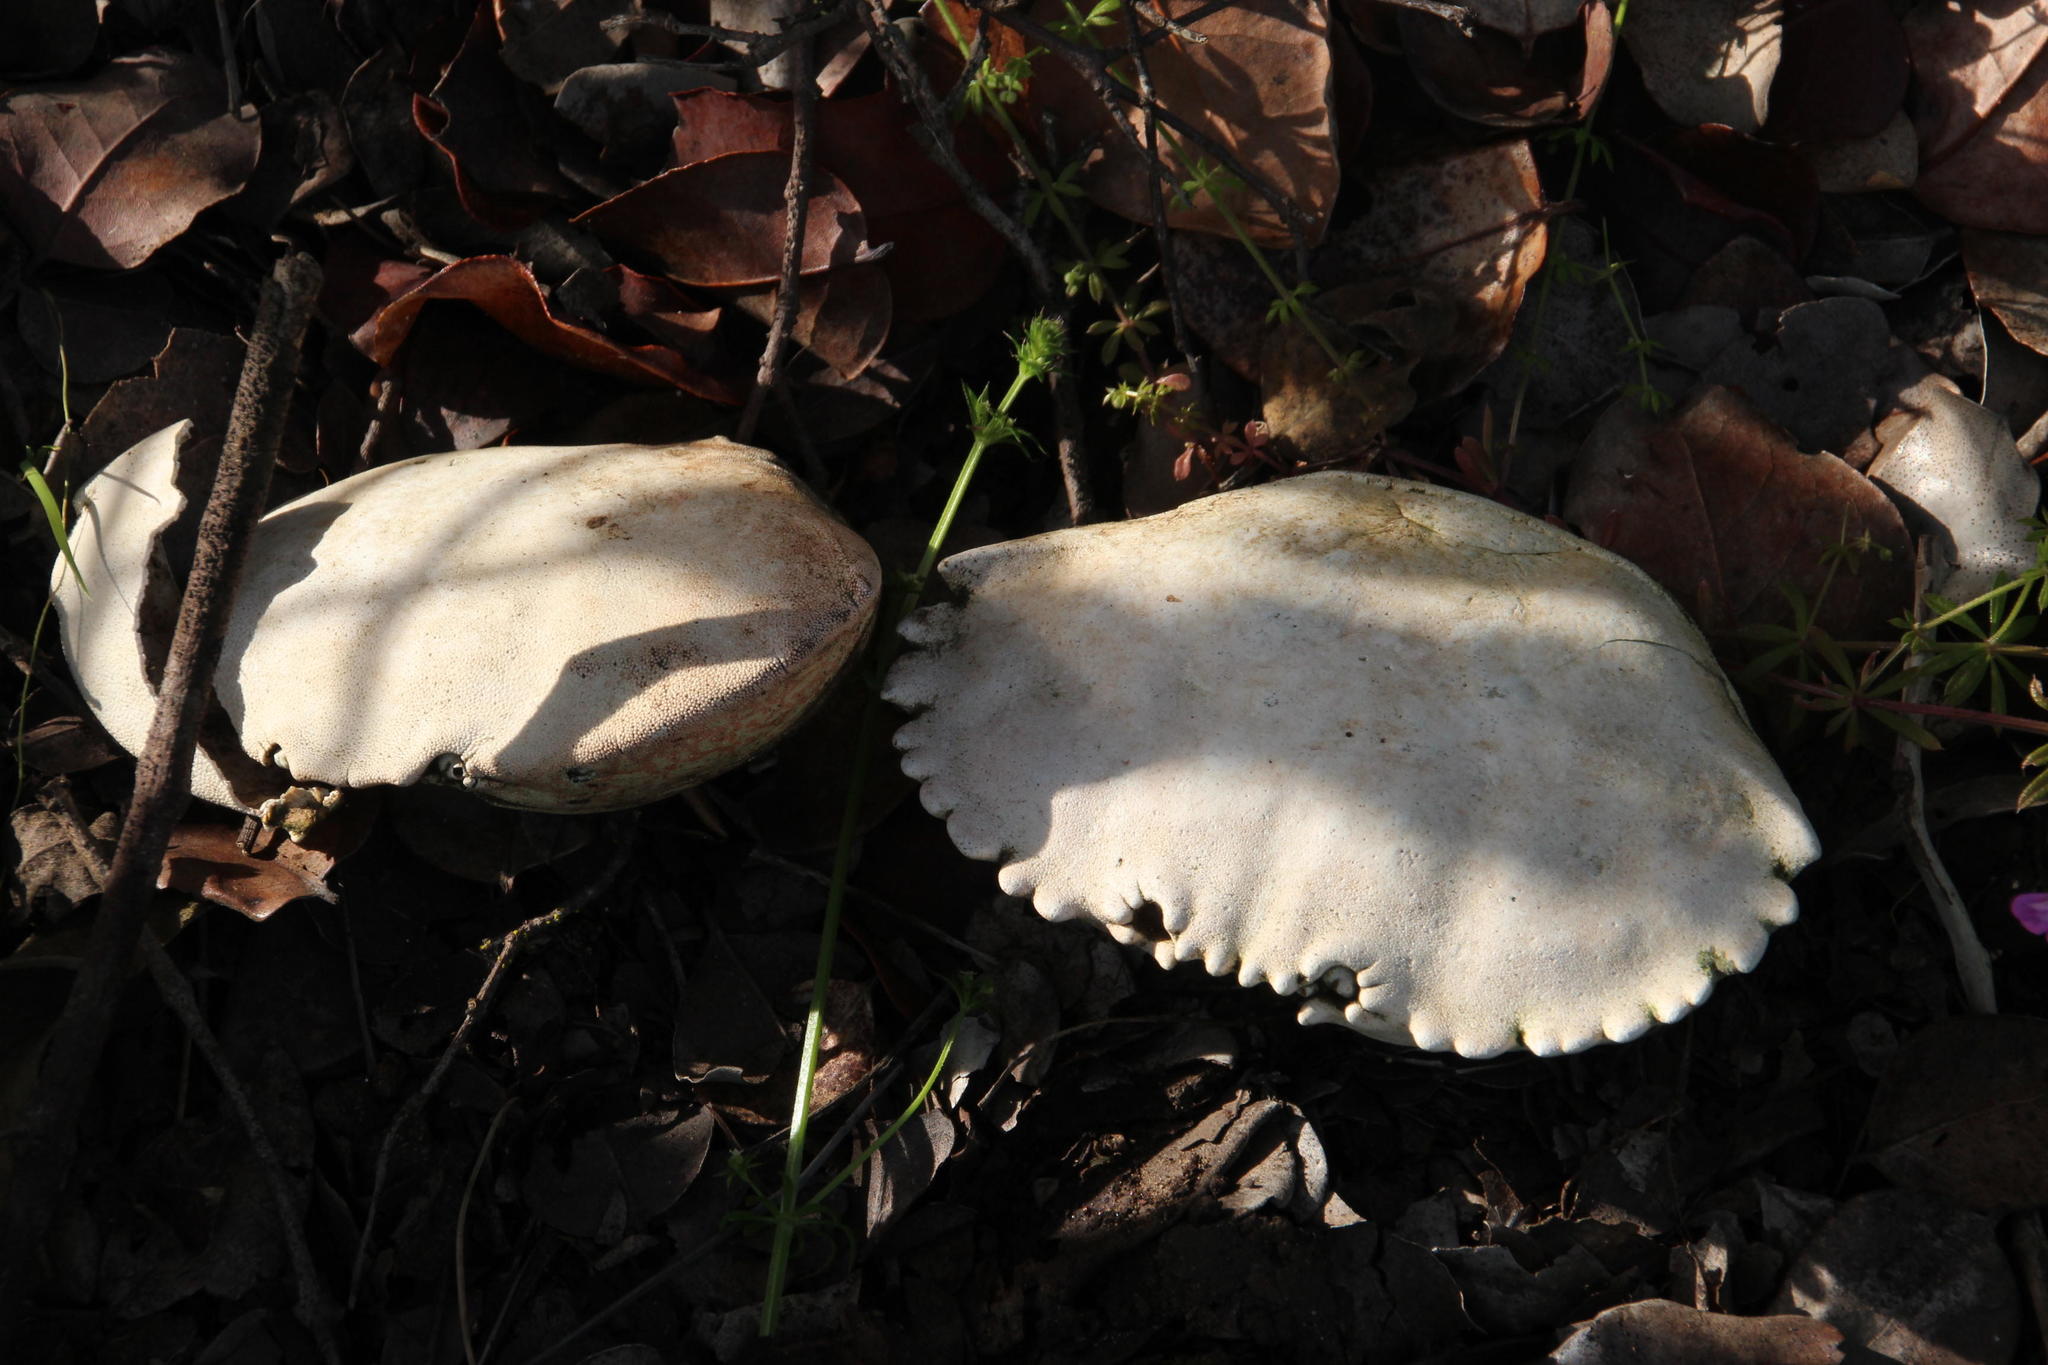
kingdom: Animalia
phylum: Arthropoda
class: Malacostraca
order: Decapoda
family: Platyxanthidae
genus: Homalaspis
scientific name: Homalaspis plana
